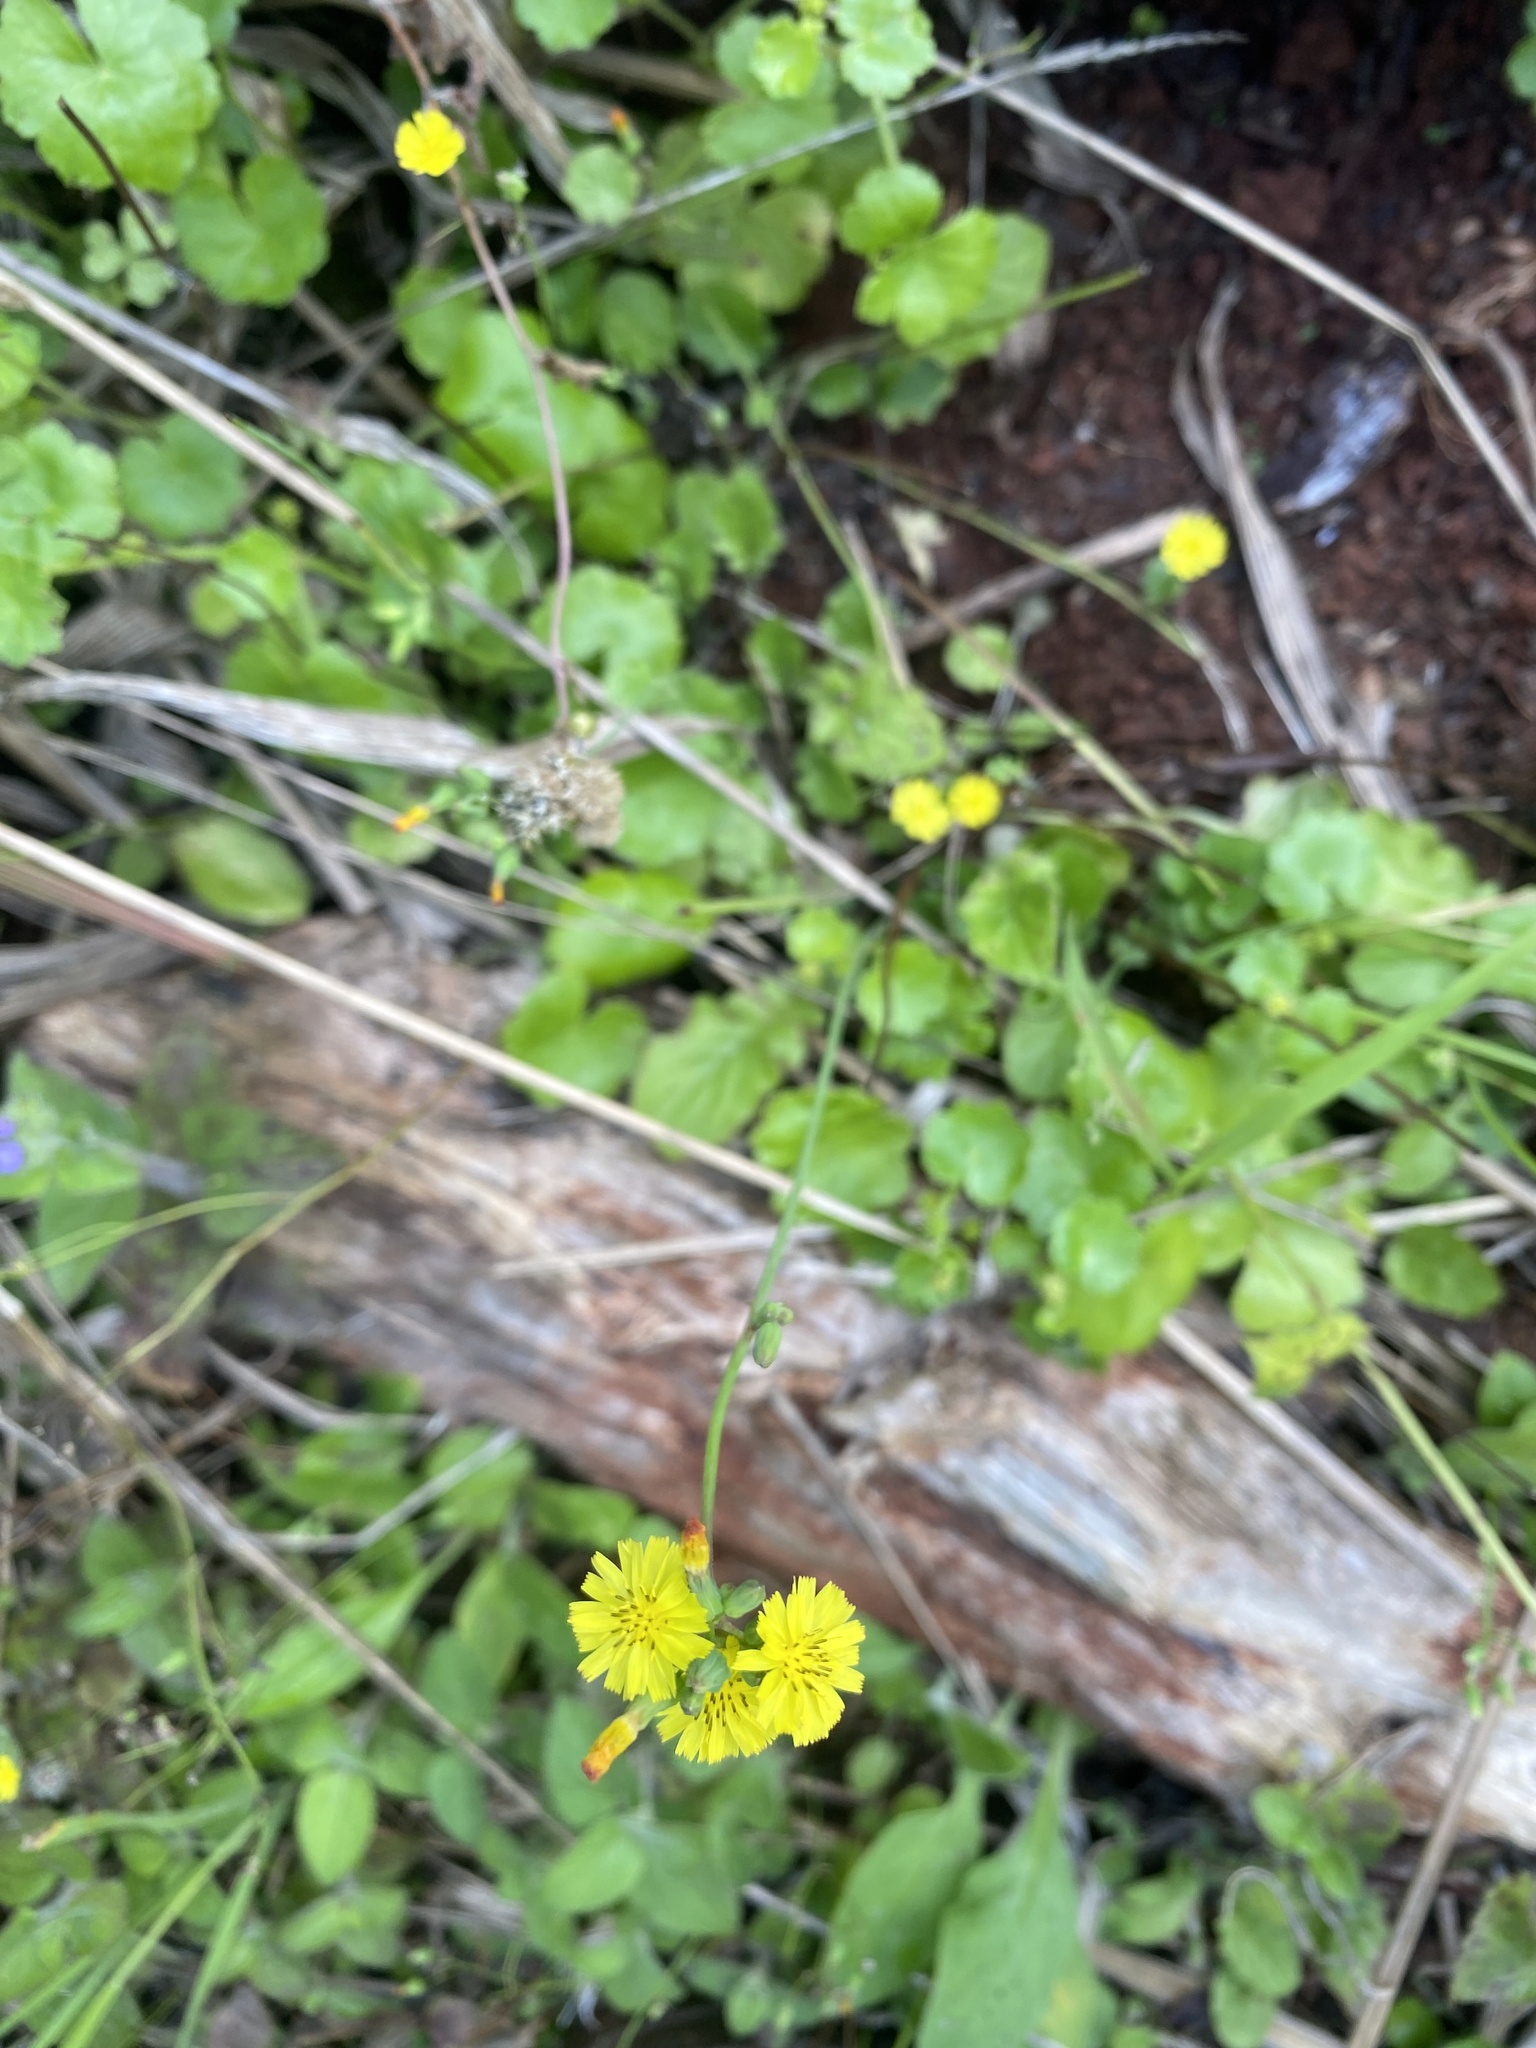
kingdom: Plantae
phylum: Tracheophyta
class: Magnoliopsida
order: Asterales
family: Asteraceae
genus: Youngia
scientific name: Youngia japonica
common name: Oriental false hawksbeard
